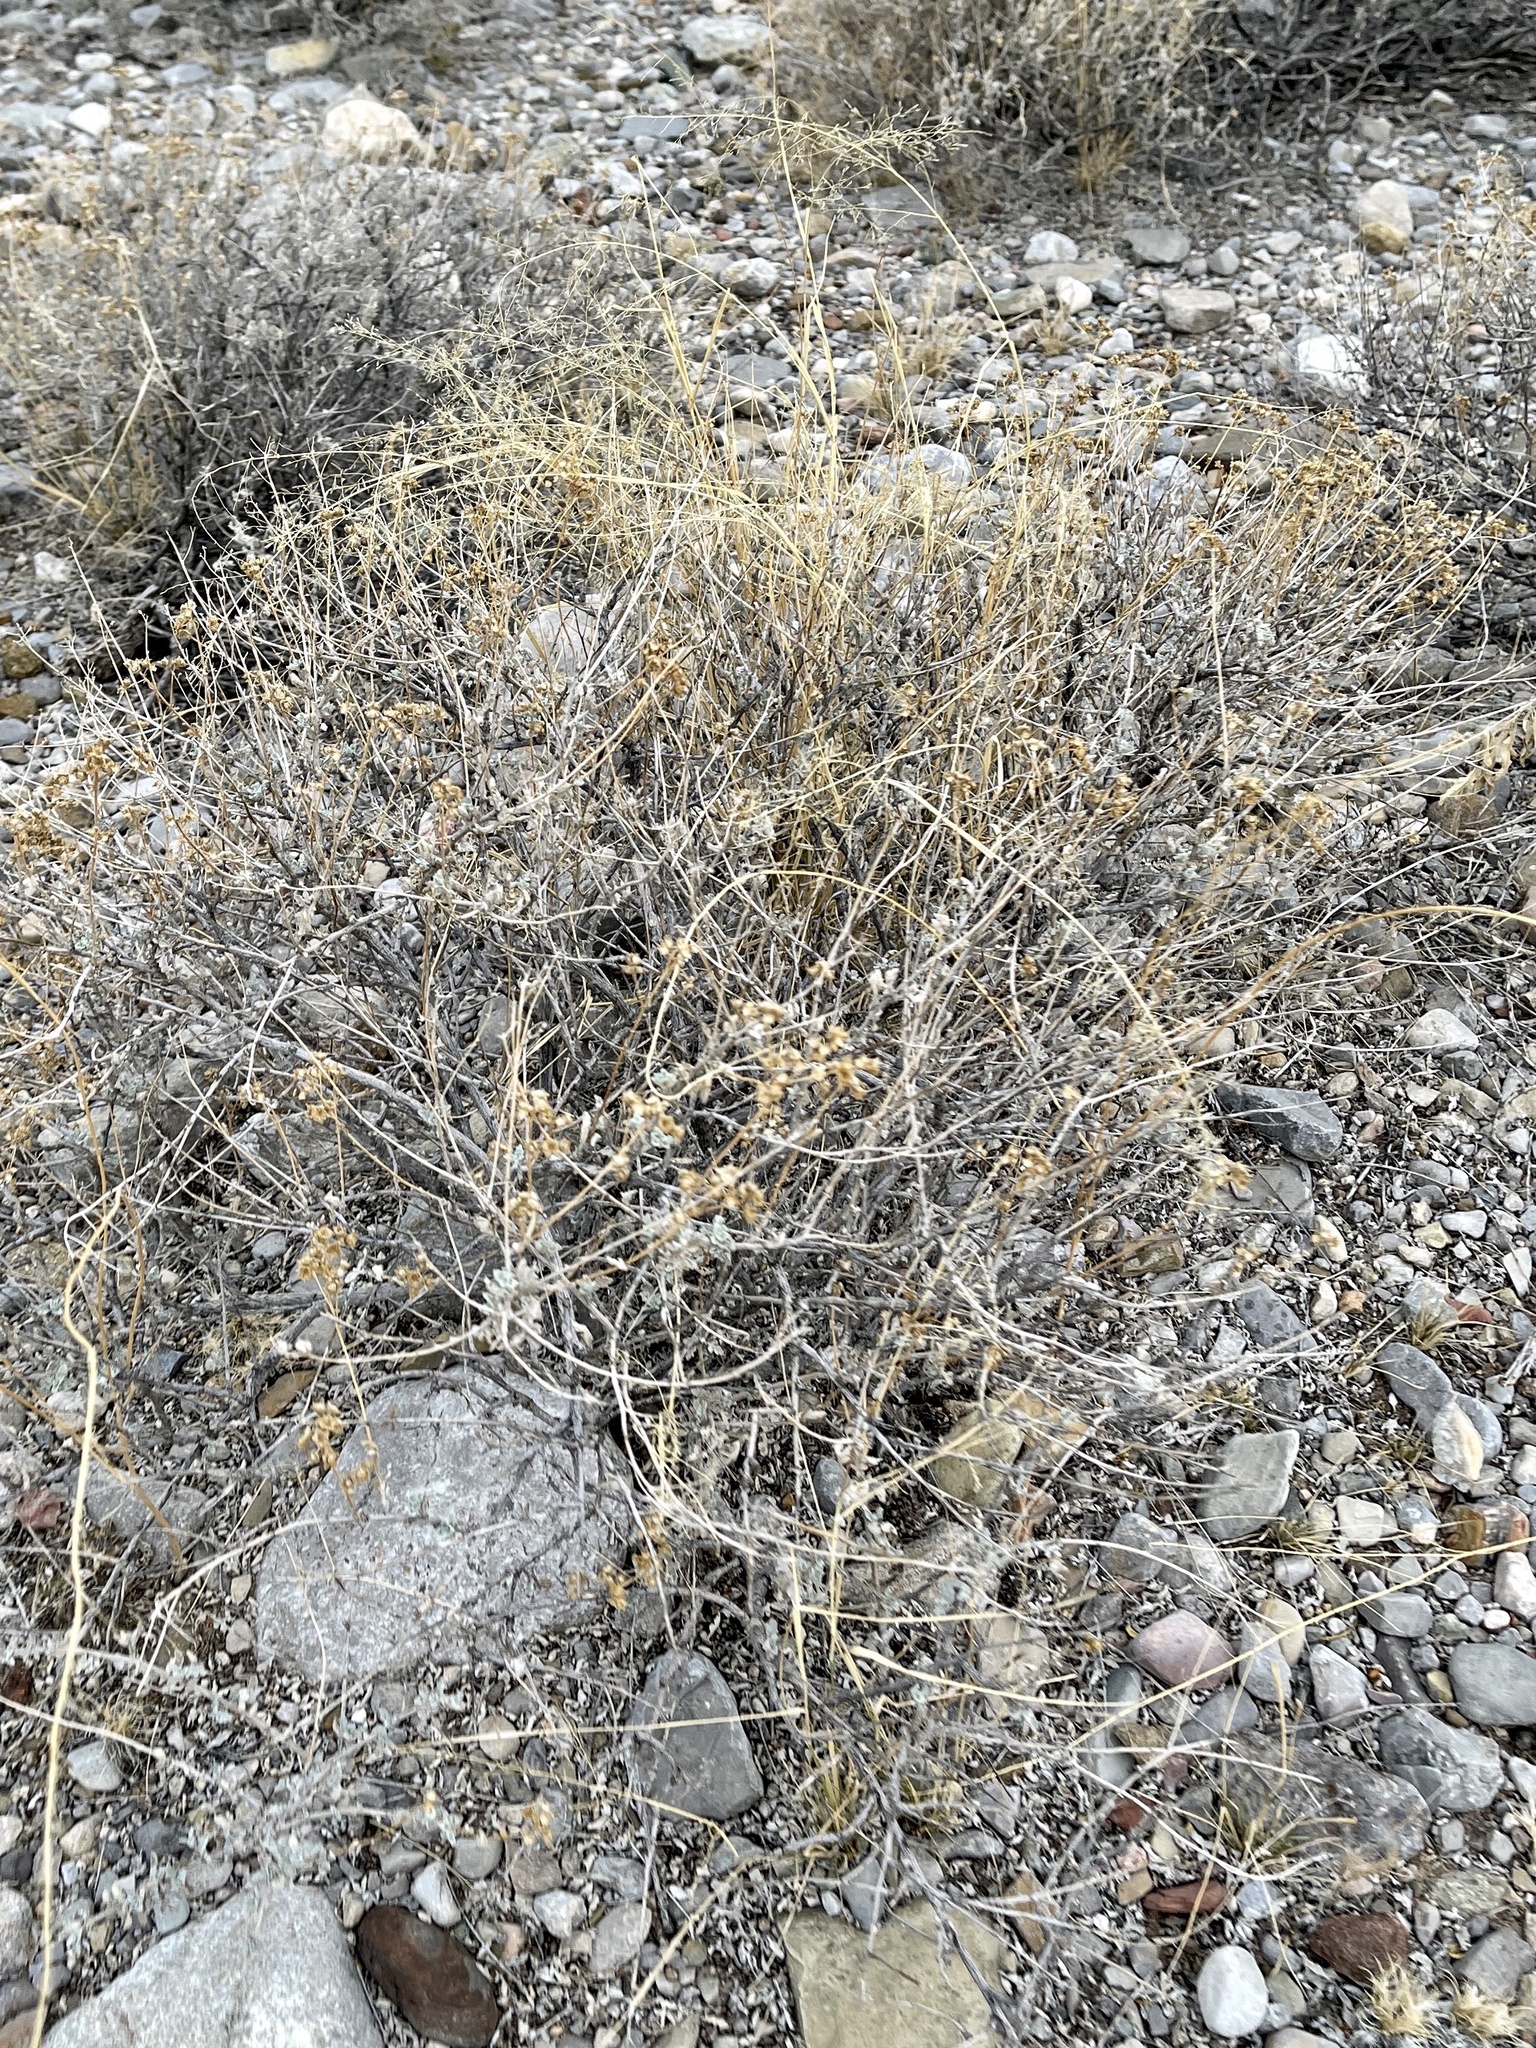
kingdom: Plantae
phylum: Tracheophyta
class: Magnoliopsida
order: Asterales
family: Asteraceae
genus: Parthenium
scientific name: Parthenium incanum
